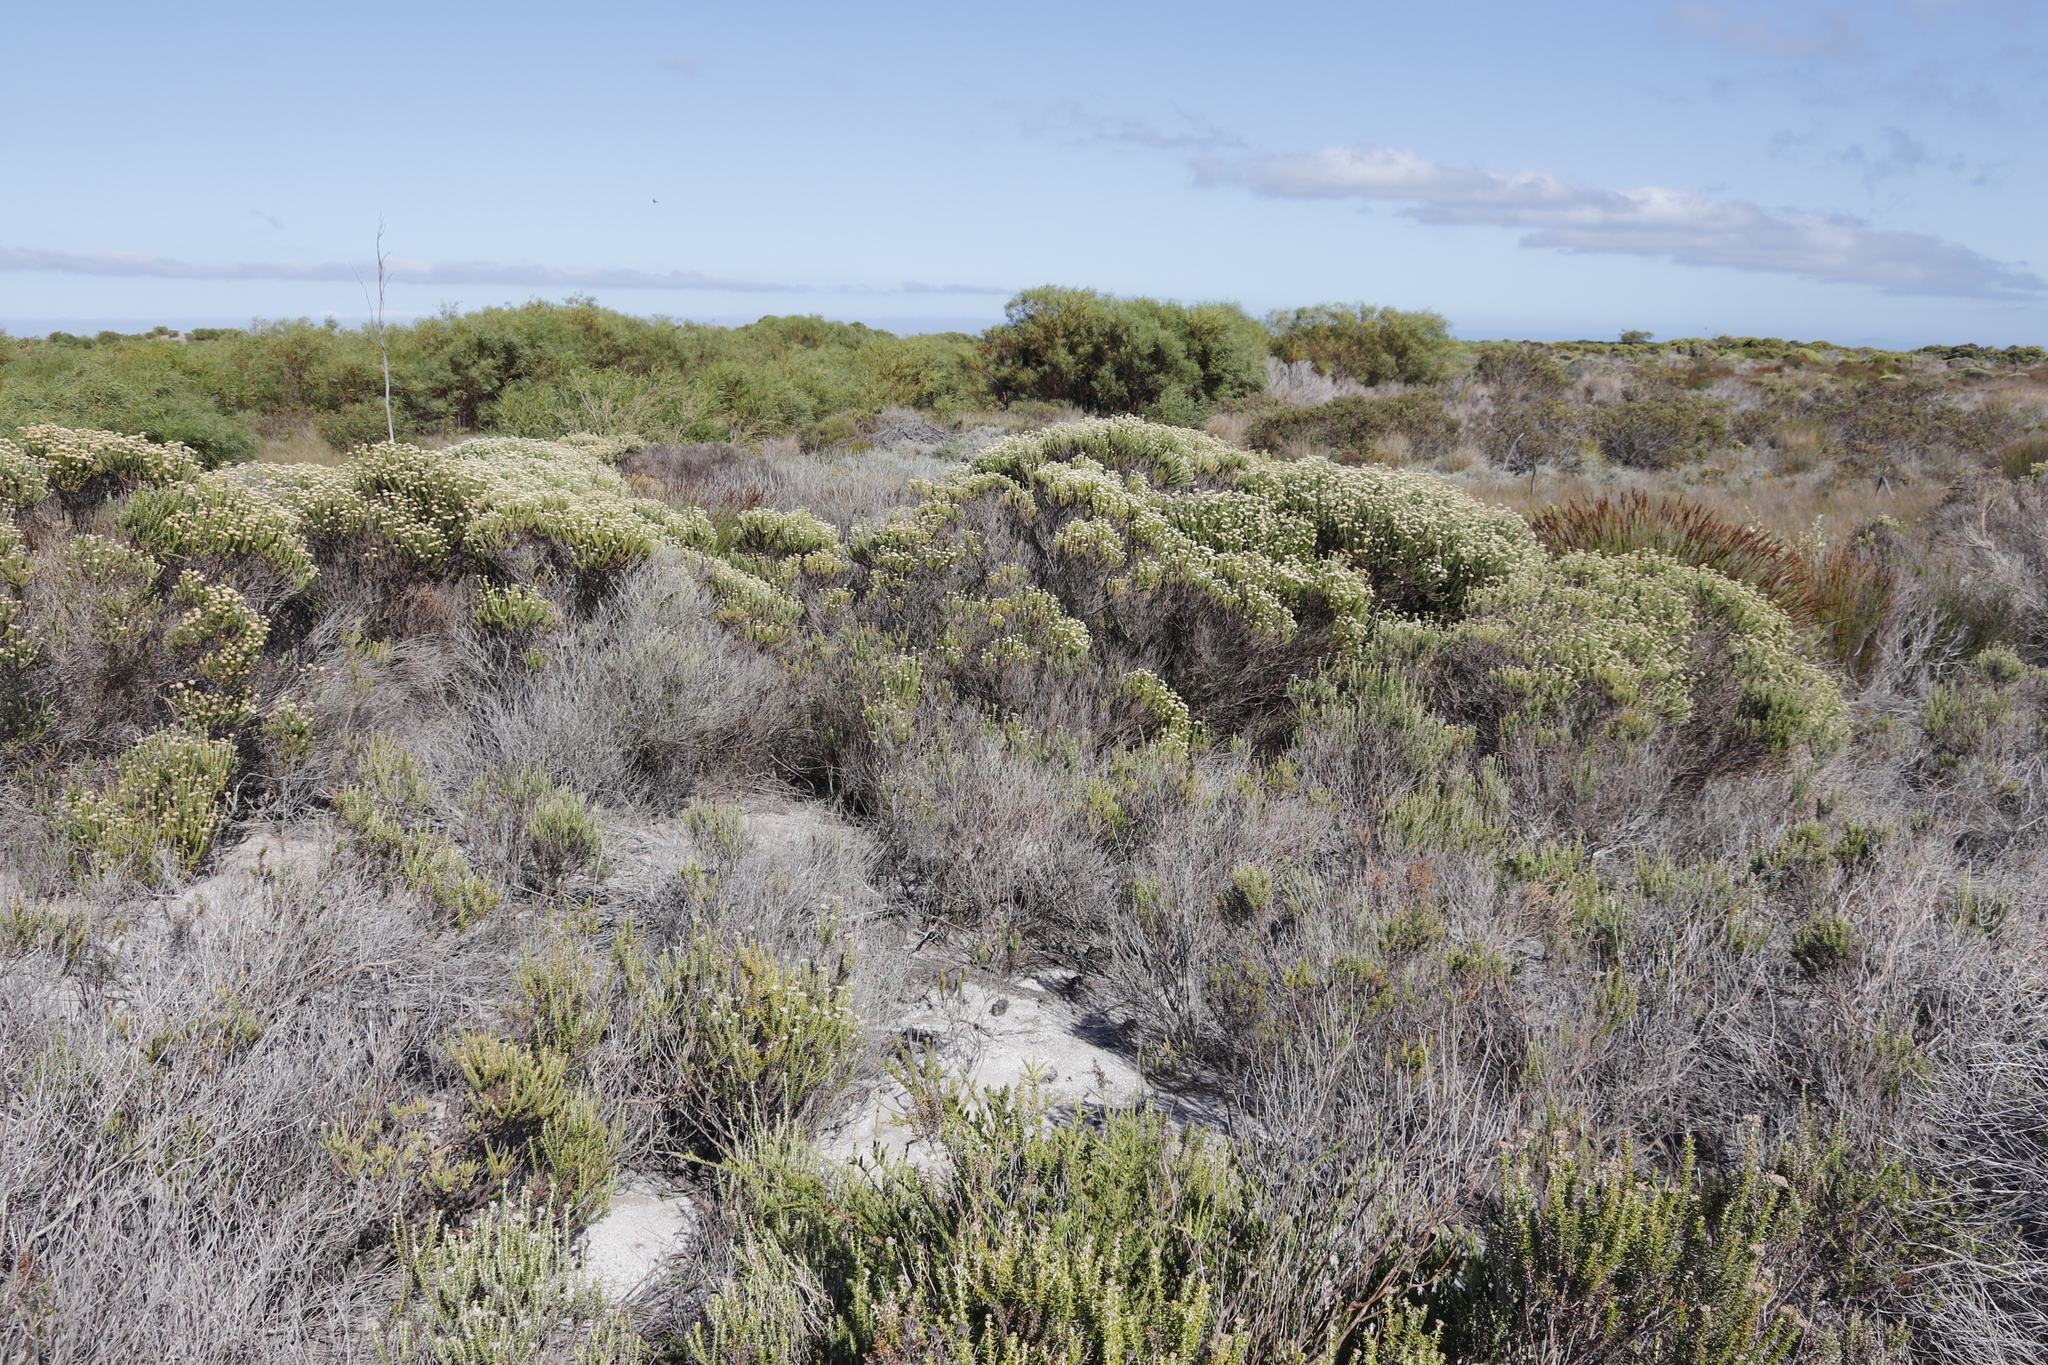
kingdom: Plantae
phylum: Tracheophyta
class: Magnoliopsida
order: Asterales
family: Asteraceae
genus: Metalasia
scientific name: Metalasia muricata
